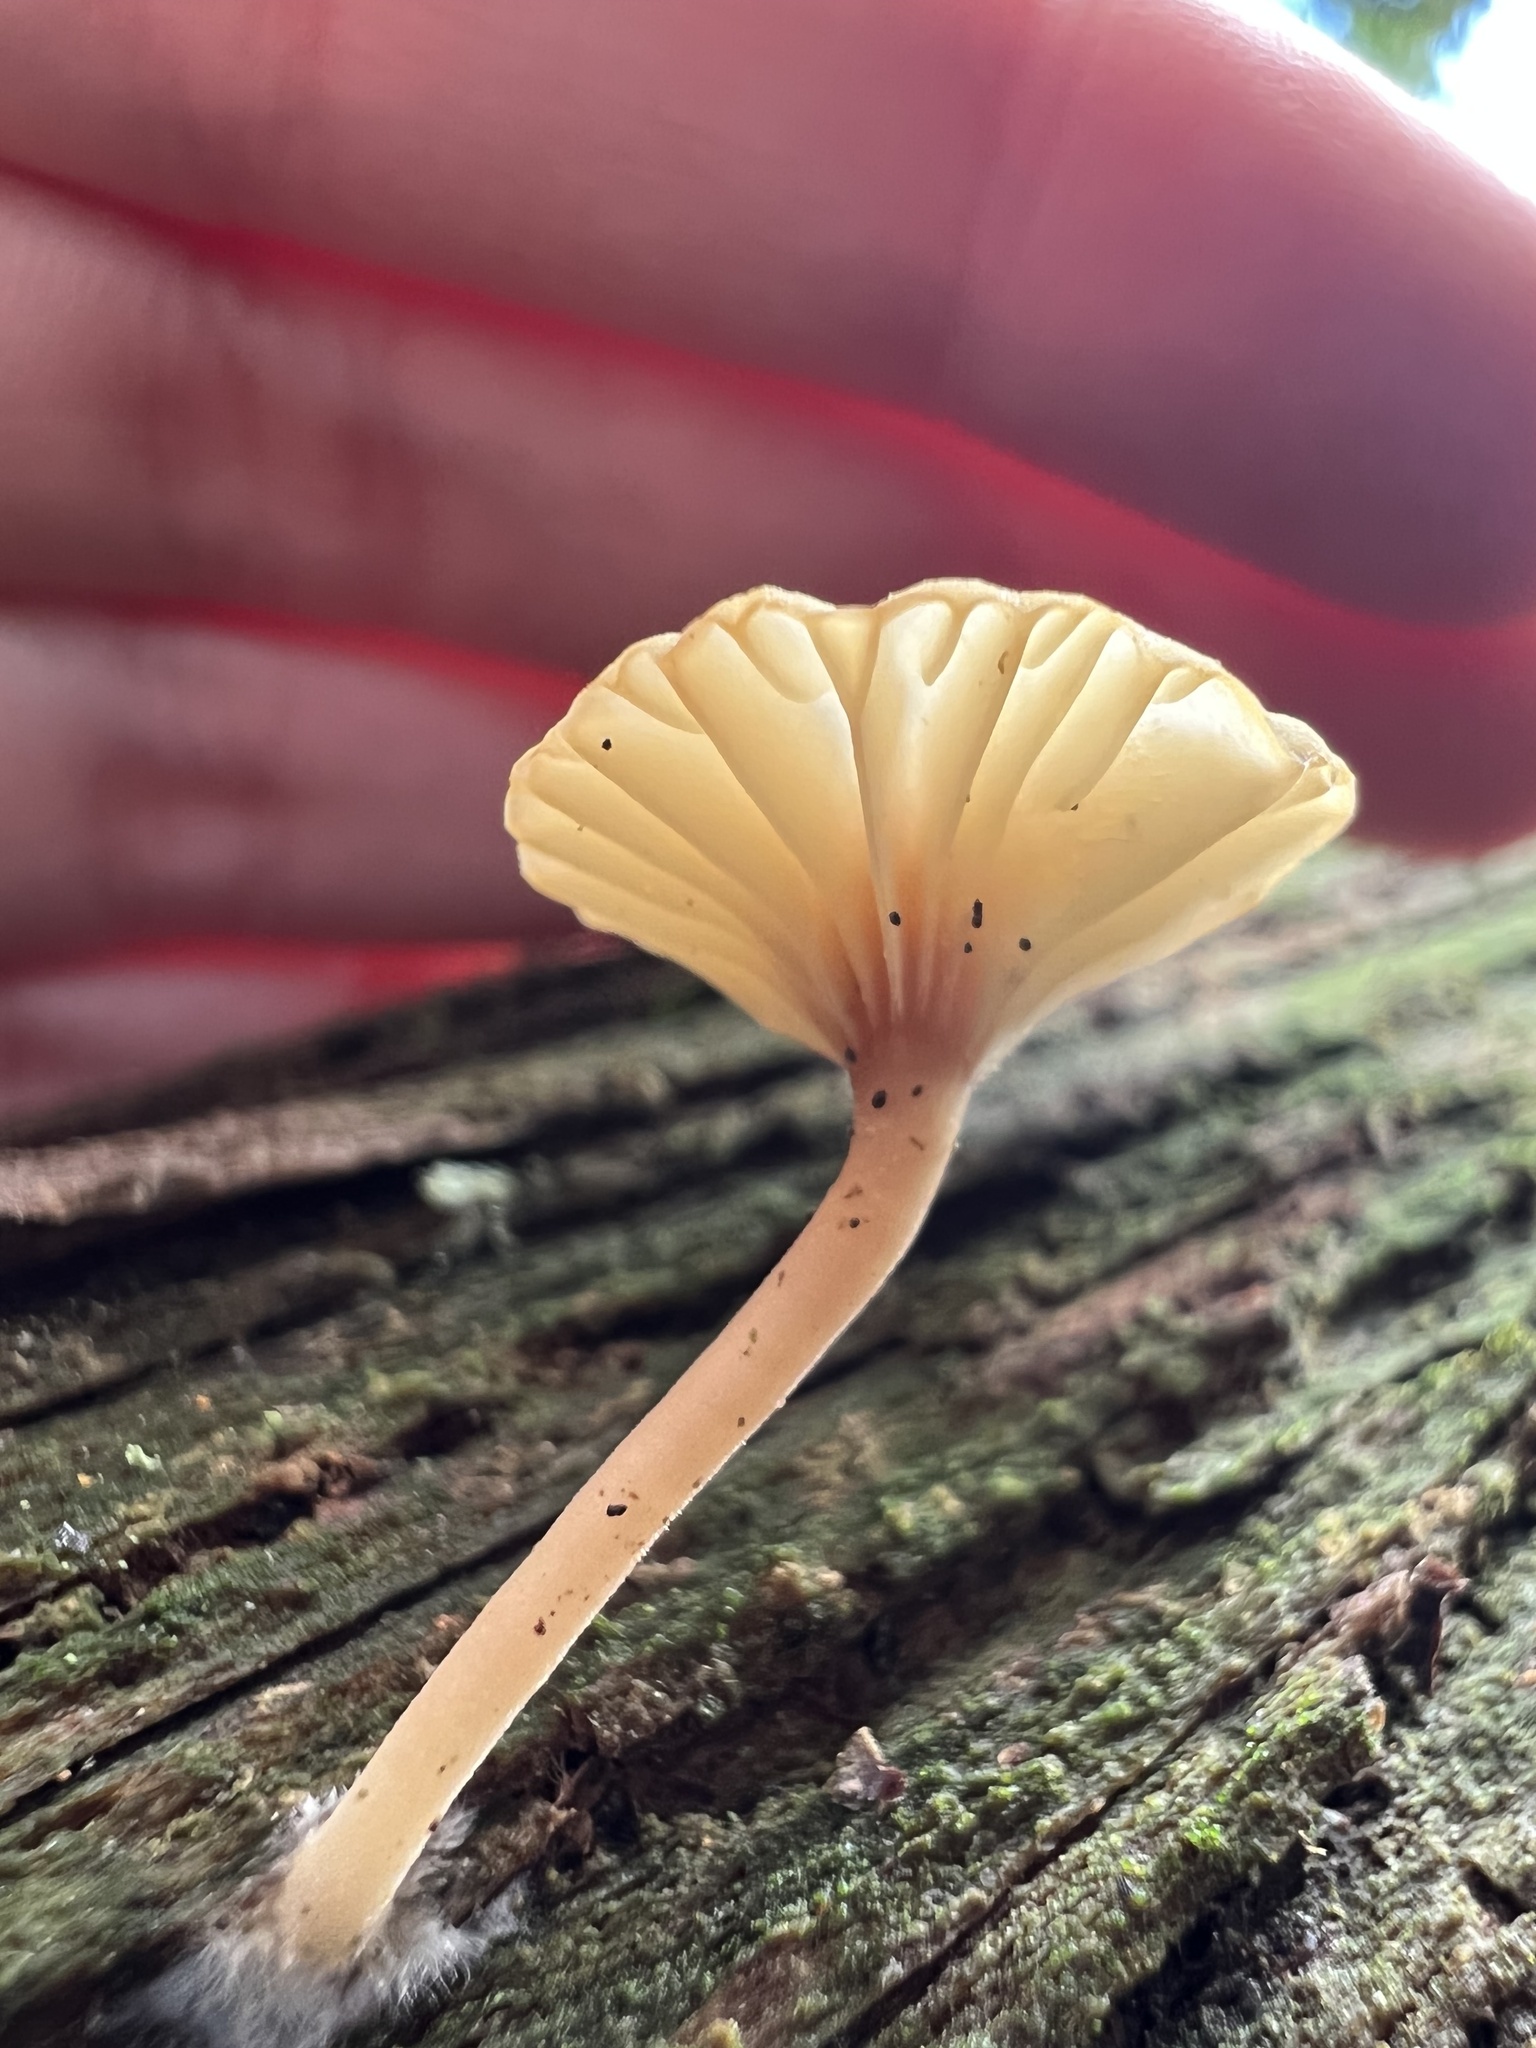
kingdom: Fungi
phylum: Basidiomycota
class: Agaricomycetes
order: Agaricales
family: Hygrophoraceae
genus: Lichenomphalia
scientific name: Lichenomphalia
